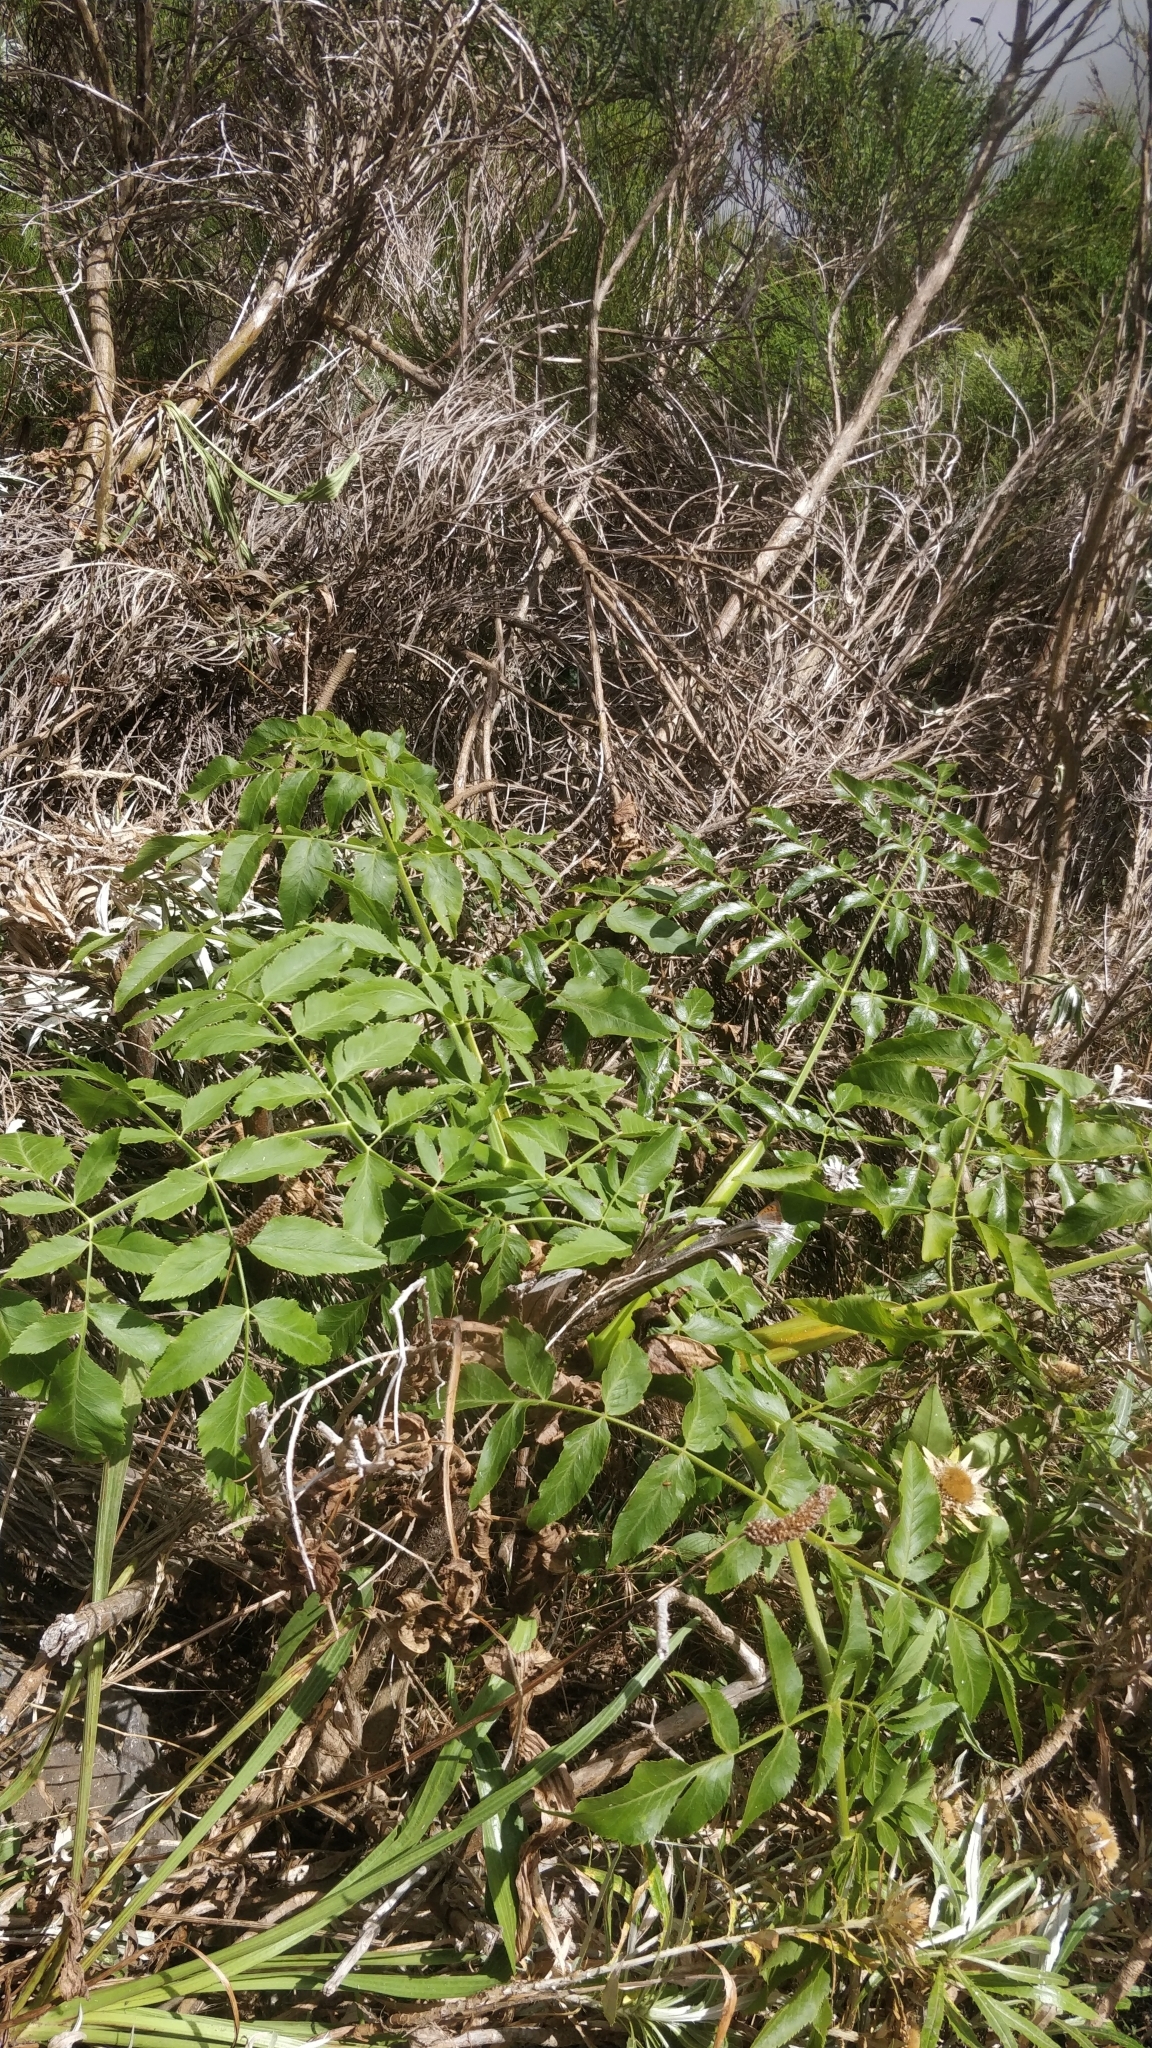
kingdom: Plantae
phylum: Tracheophyta
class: Magnoliopsida
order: Apiales
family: Apiaceae
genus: Daucus
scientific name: Daucus decipiens
